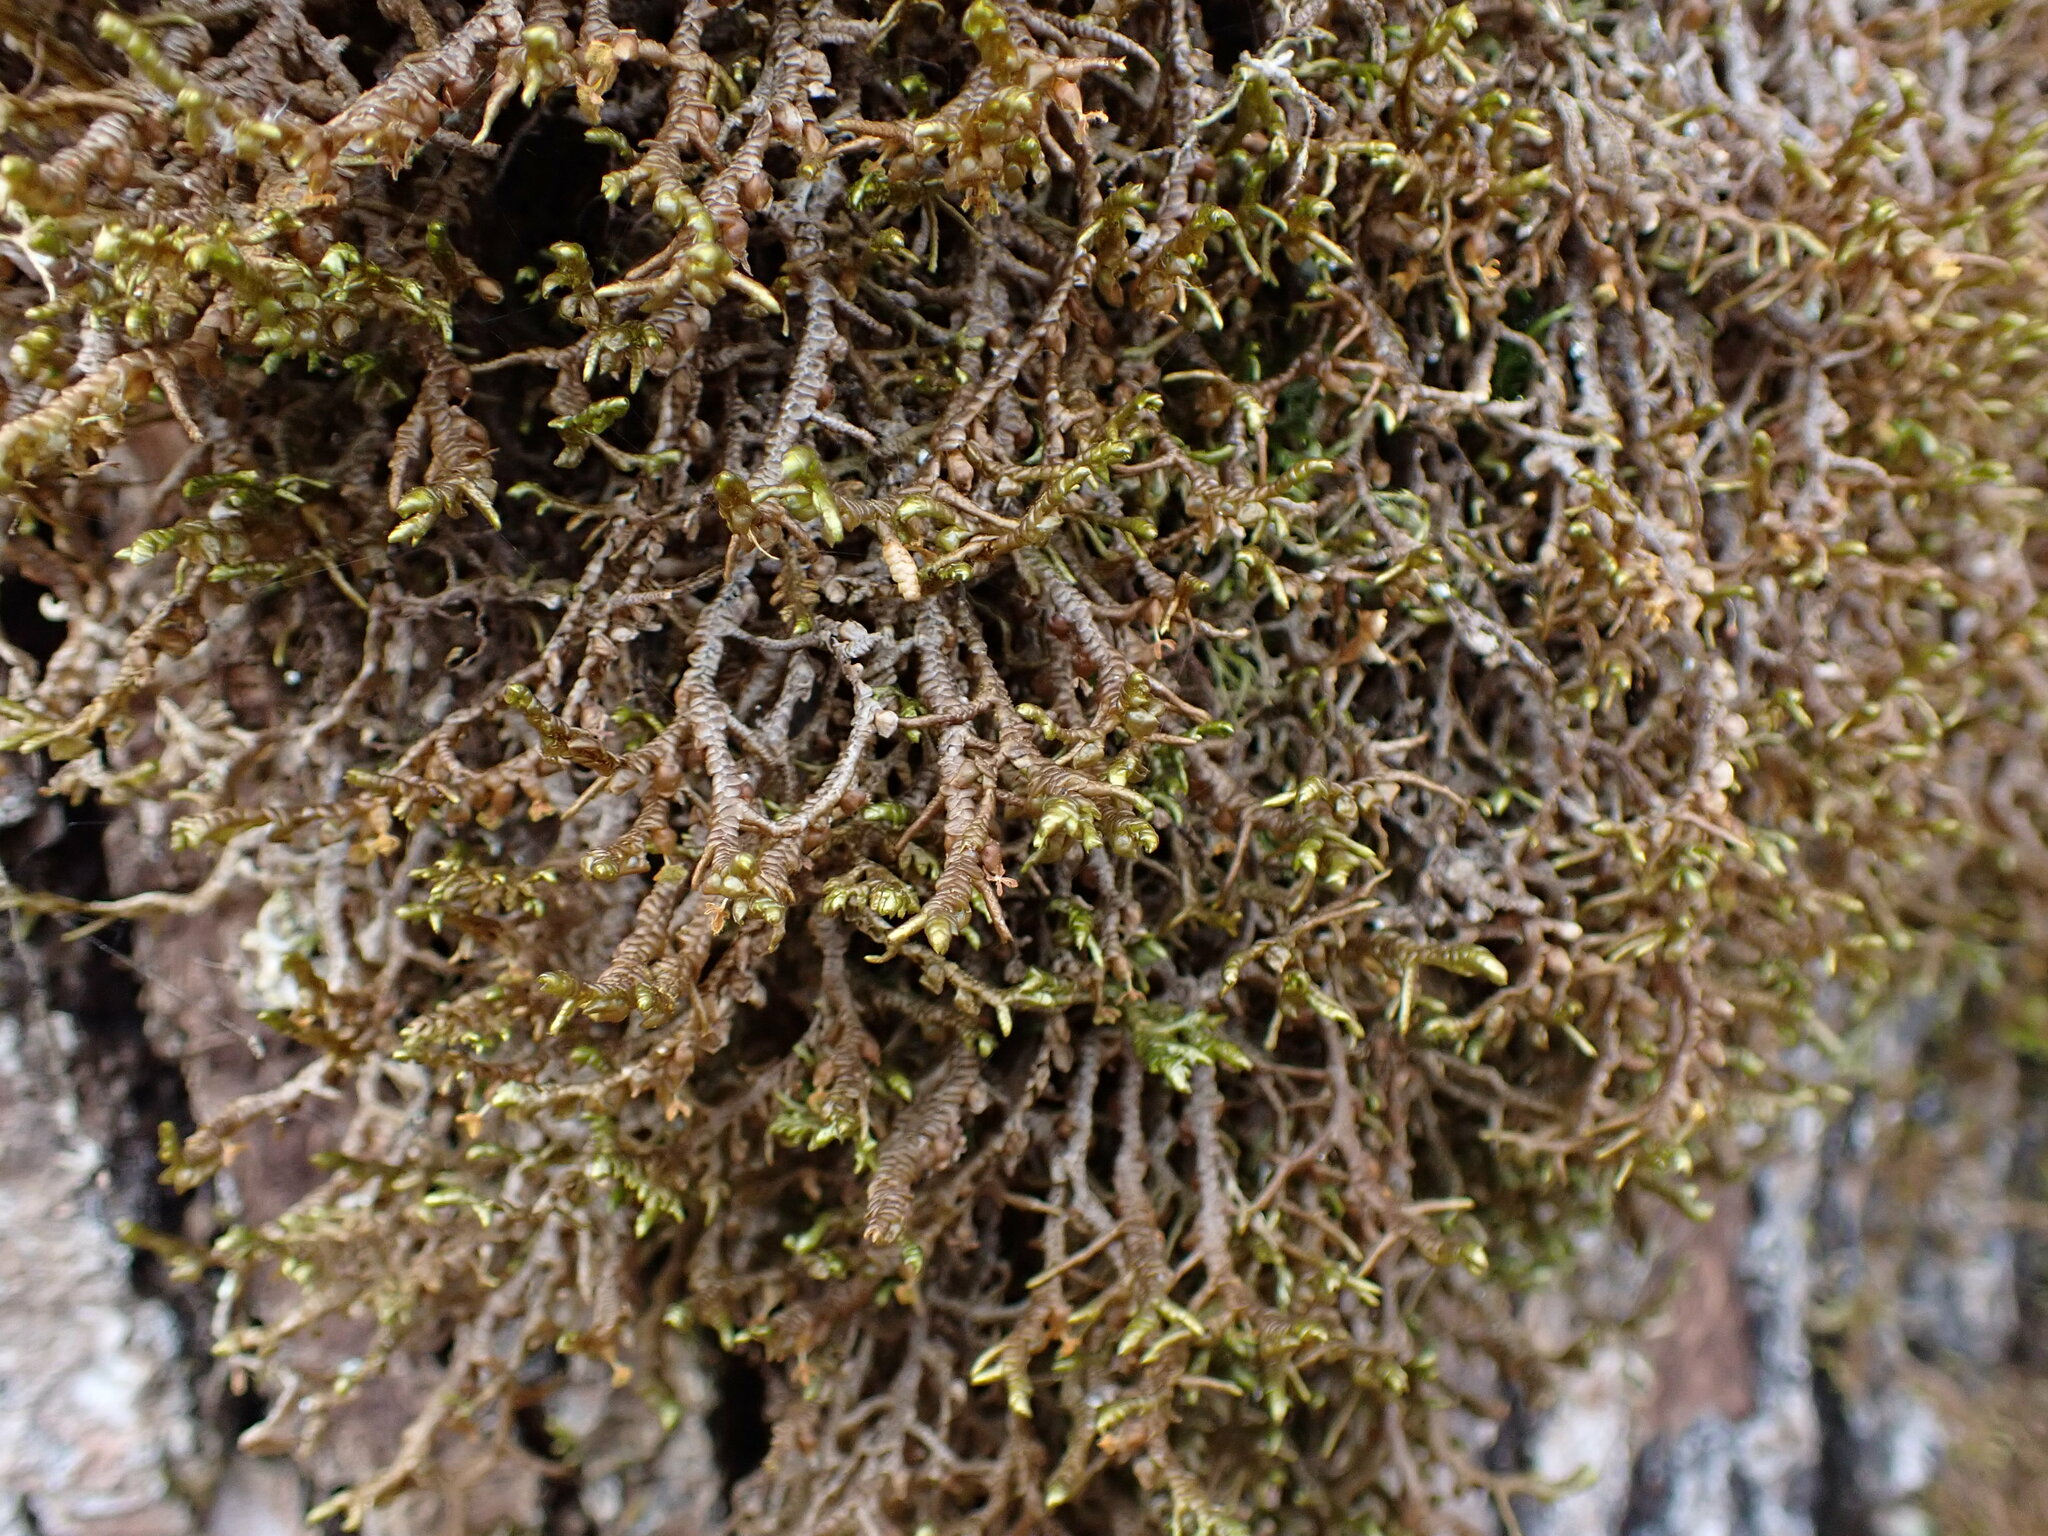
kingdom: Plantae
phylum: Marchantiophyta
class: Jungermanniopsida
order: Porellales
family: Porellaceae
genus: Porella
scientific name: Porella navicularis
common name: Tree ruffle liverwort
